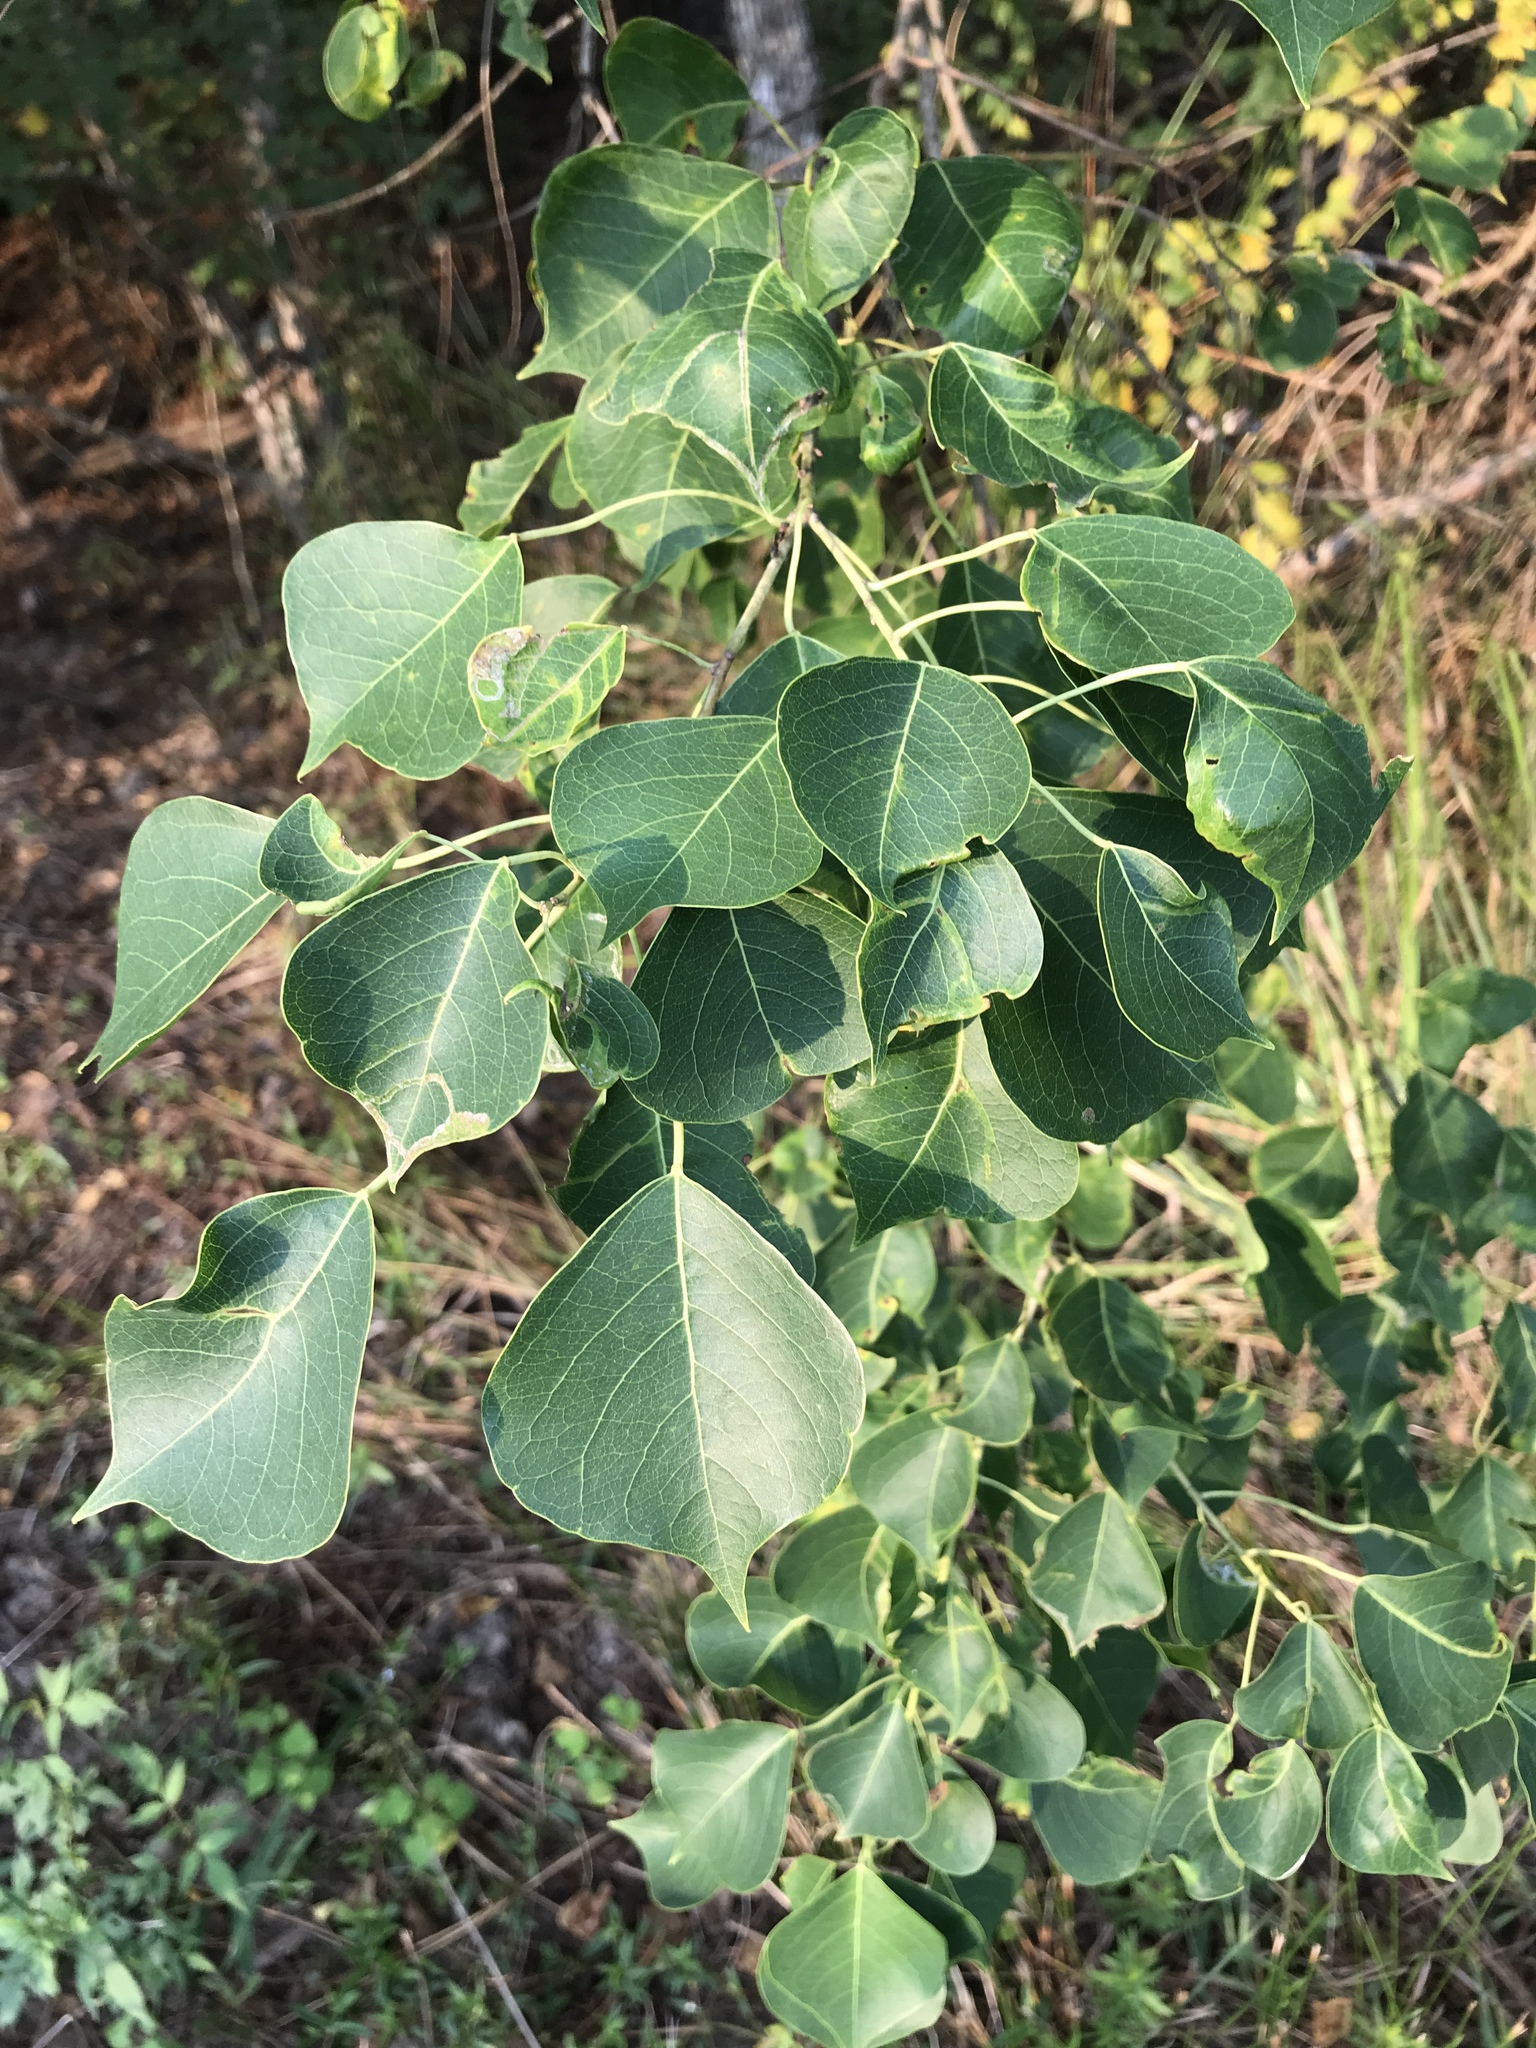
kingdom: Plantae
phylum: Tracheophyta
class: Magnoliopsida
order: Malpighiales
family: Euphorbiaceae
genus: Triadica
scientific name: Triadica sebifera
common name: Chinese tallow
